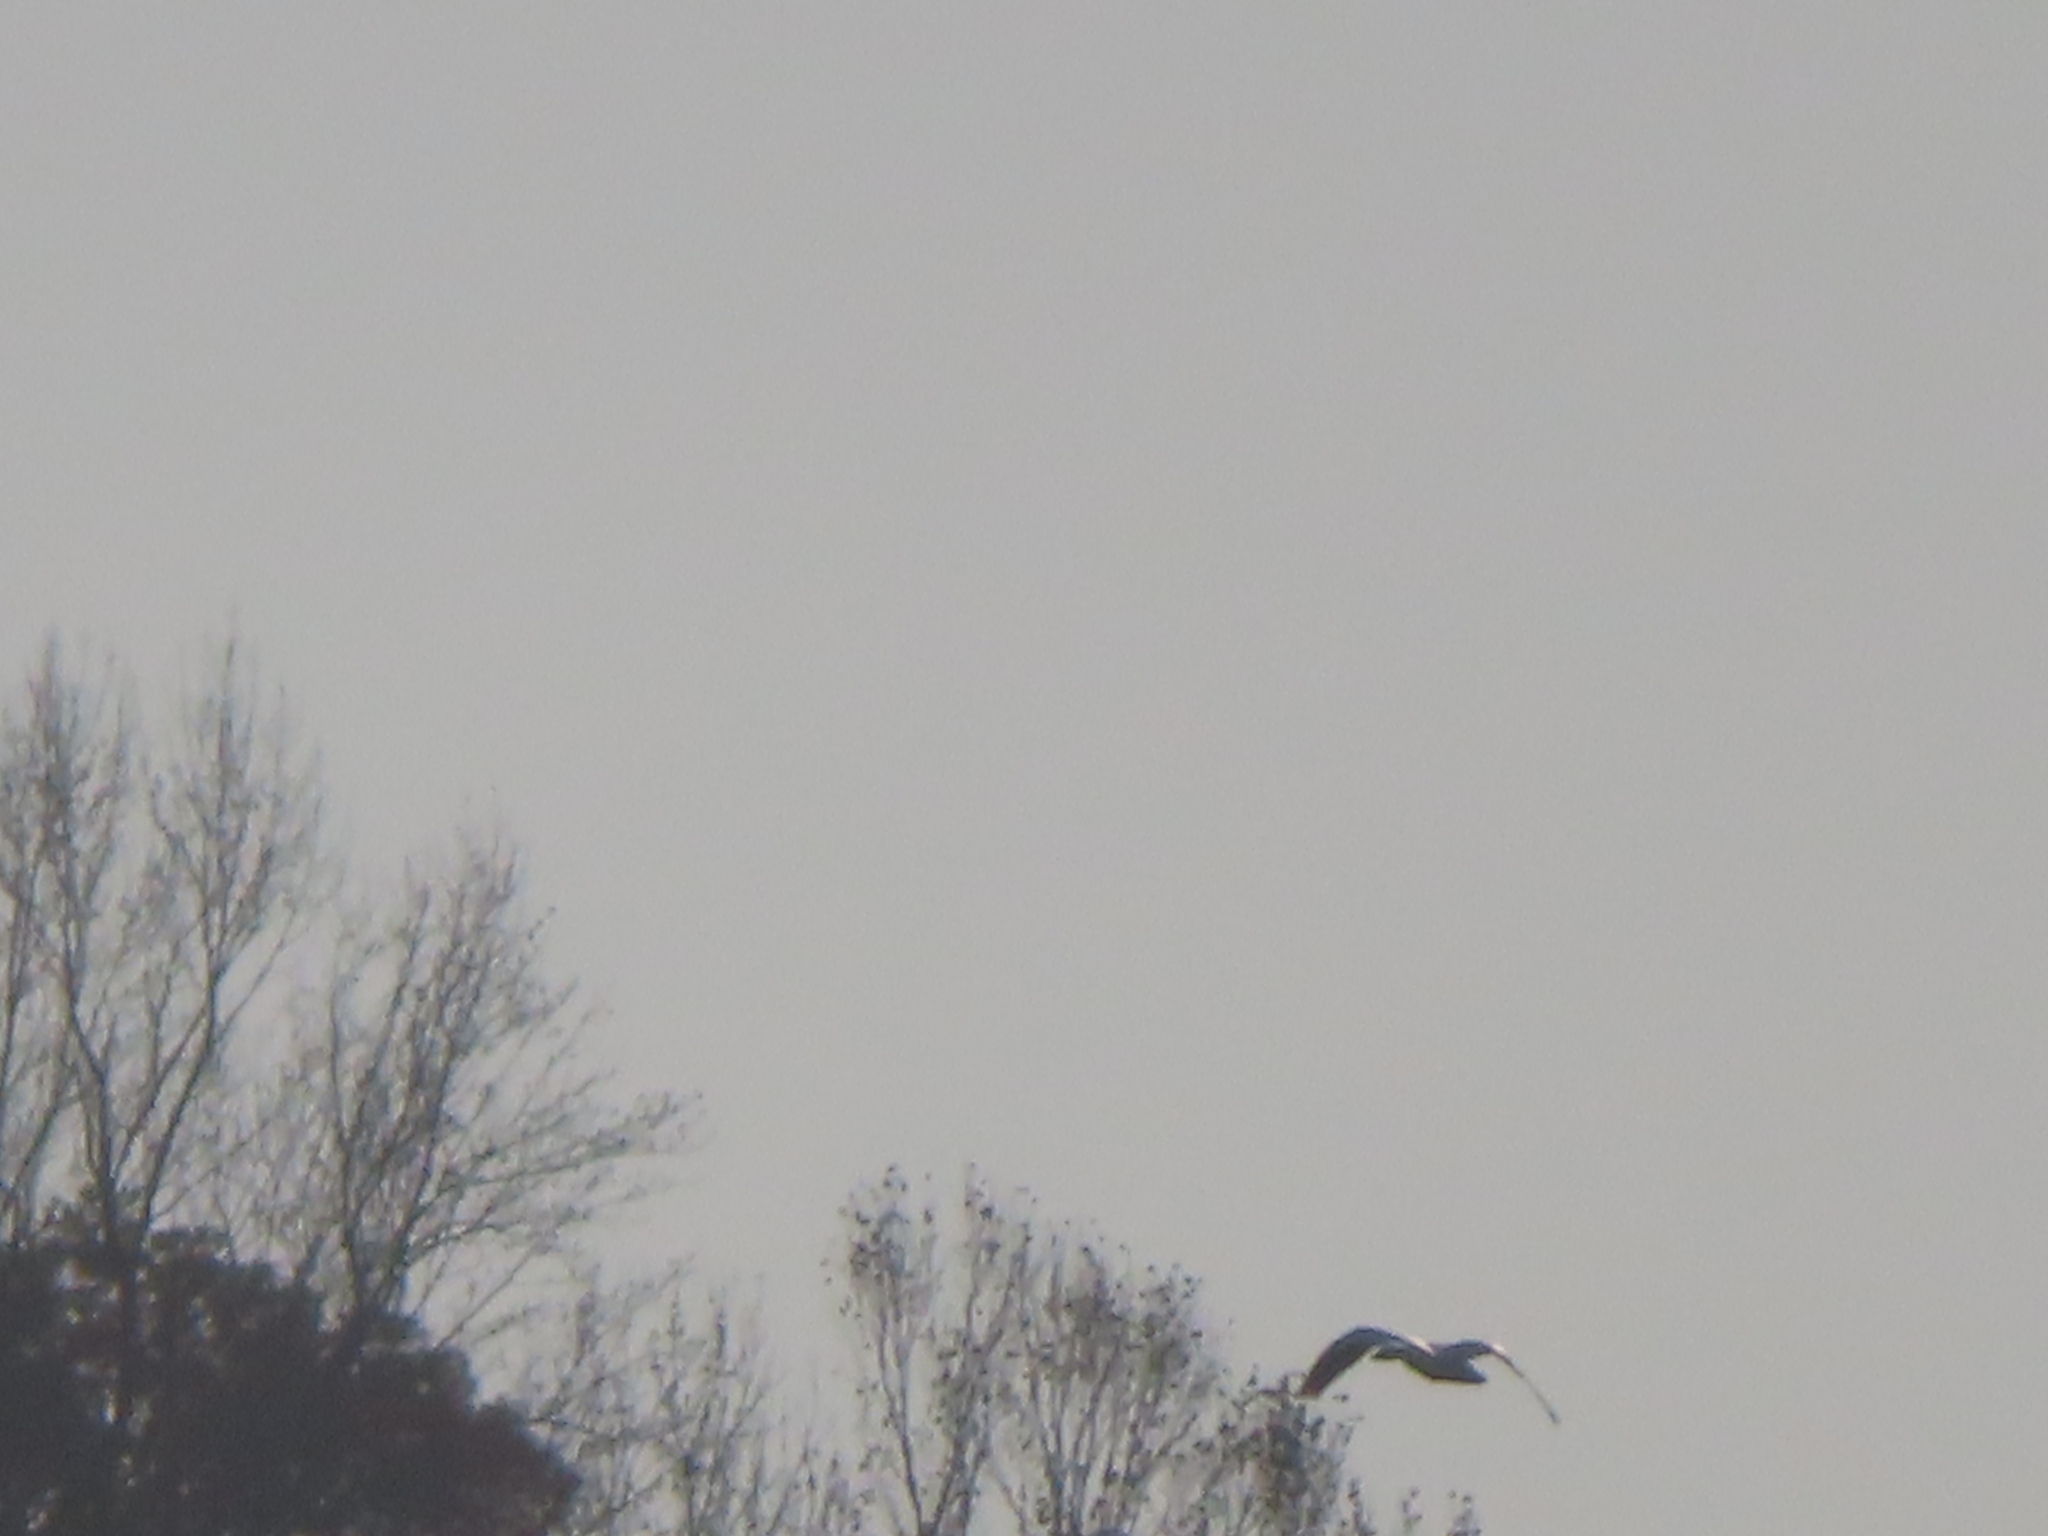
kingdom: Animalia
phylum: Chordata
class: Aves
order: Anseriformes
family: Anatidae
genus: Anser
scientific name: Anser caerulescens
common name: Snow goose
